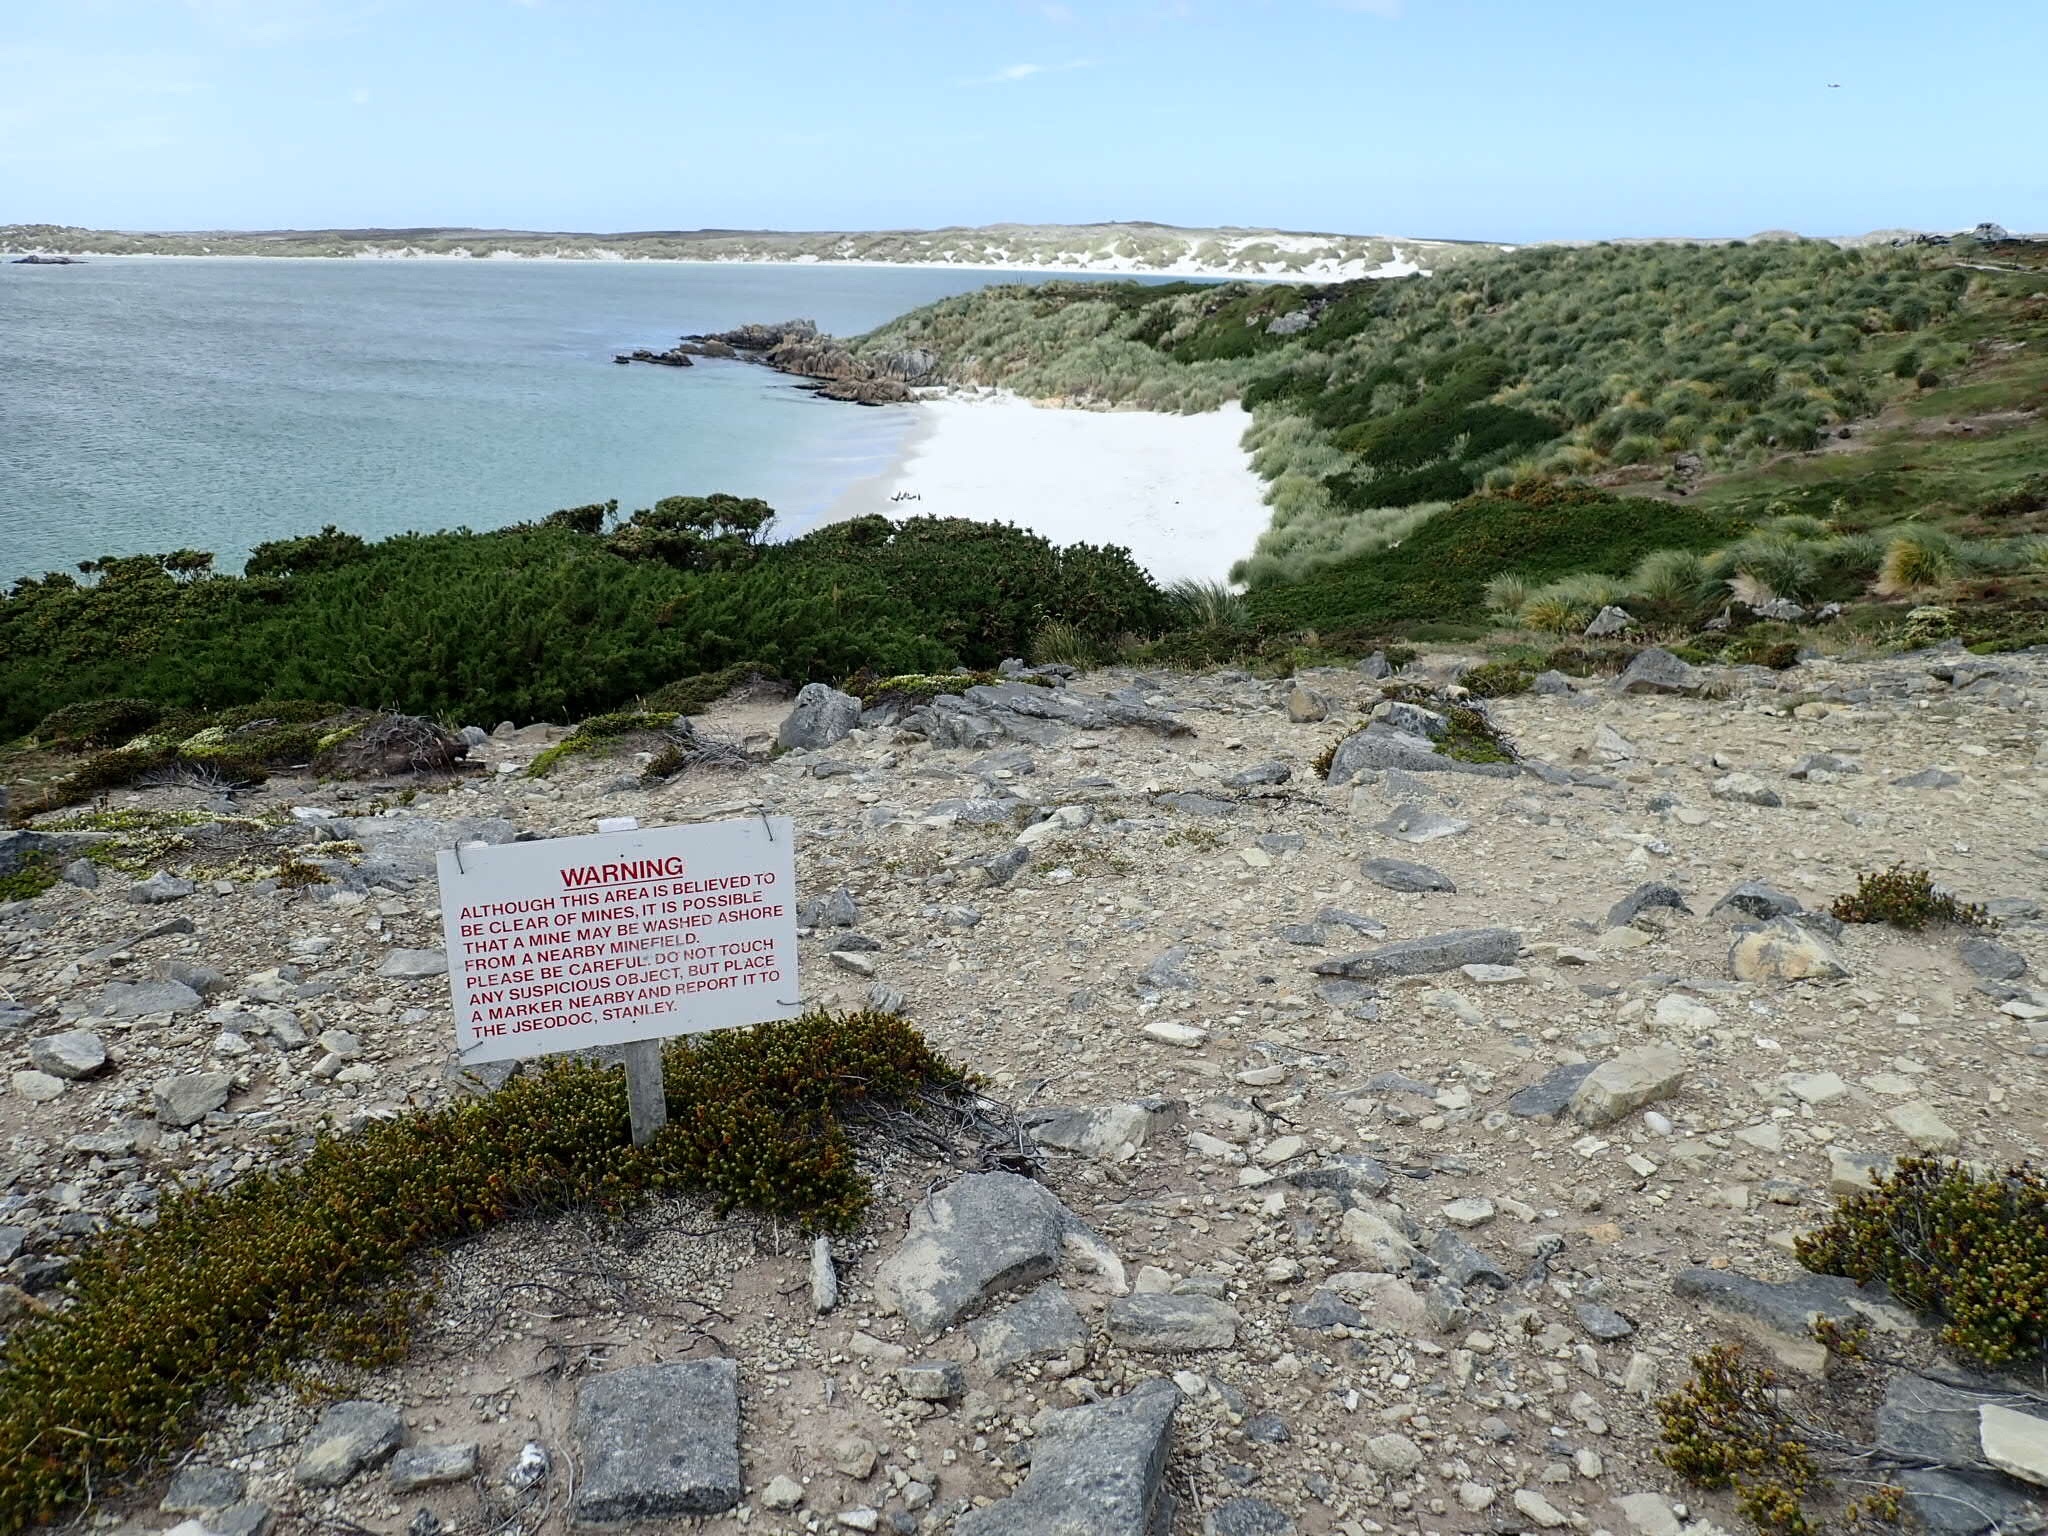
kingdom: Animalia
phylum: Chordata
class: Aves
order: Sphenisciformes
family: Spheniscidae
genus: Spheniscus
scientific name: Spheniscus magellanicus
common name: Magellanic penguin
